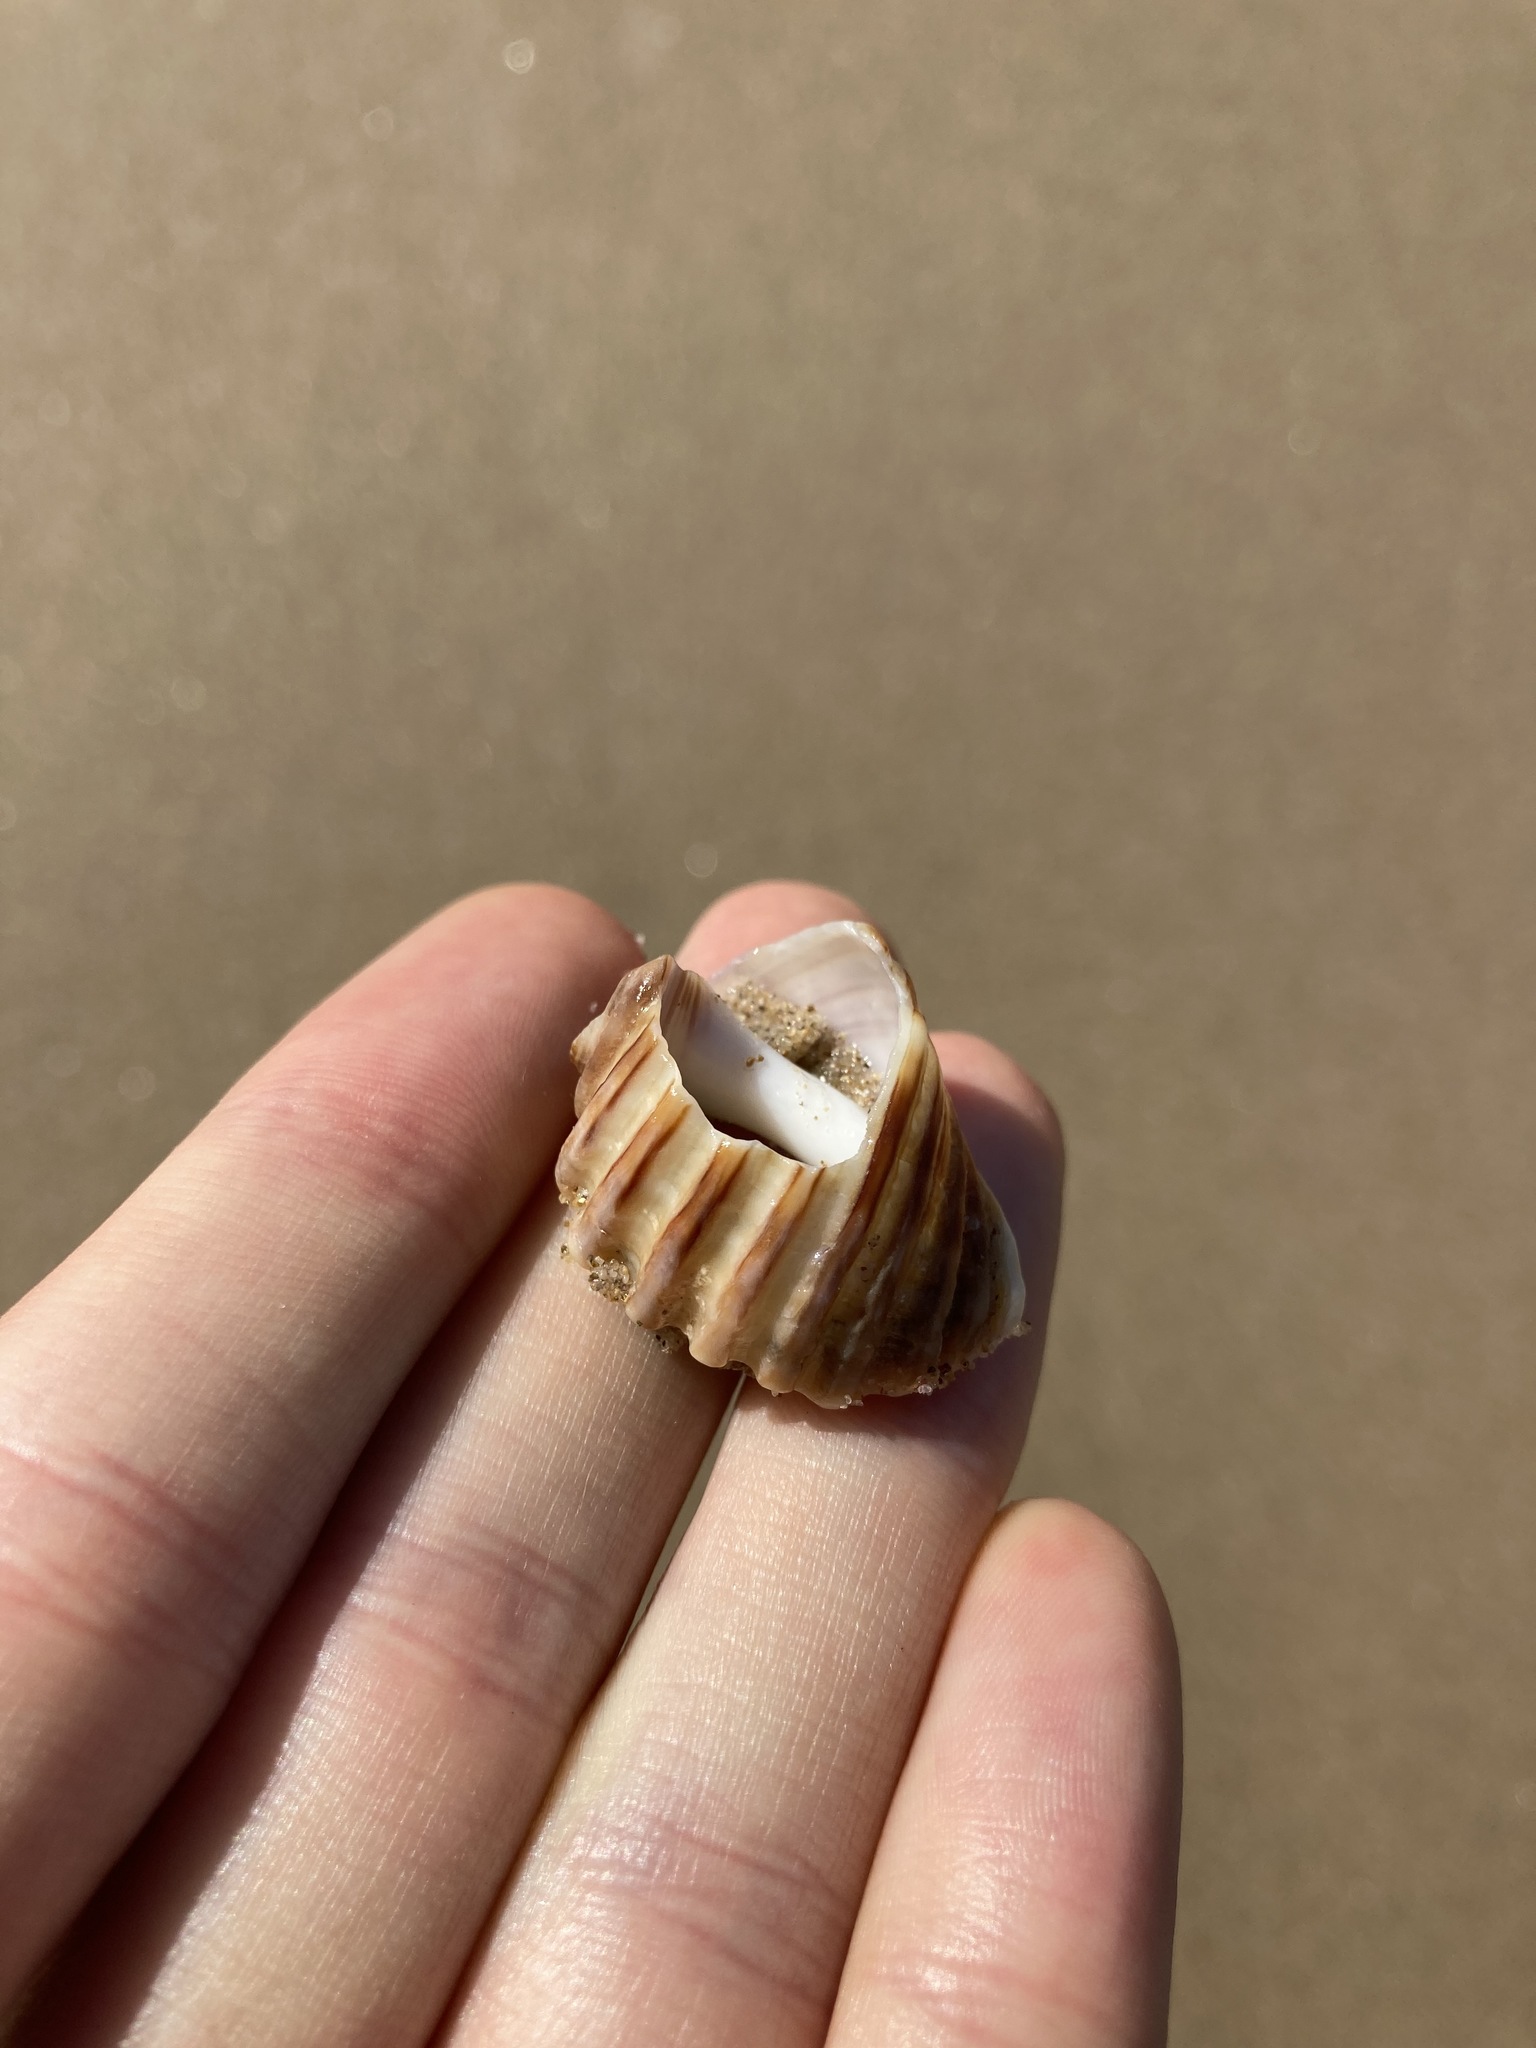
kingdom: Animalia
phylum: Mollusca
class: Gastropoda
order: Neogastropoda
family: Muricidae
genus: Dicathais
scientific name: Dicathais orbita
